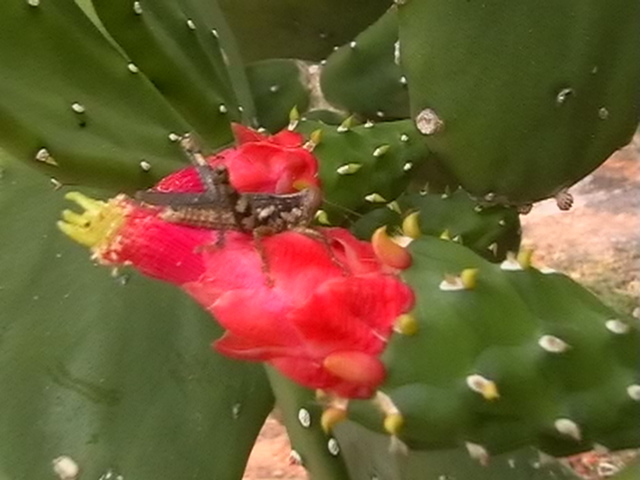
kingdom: Animalia
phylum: Arthropoda
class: Insecta
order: Orthoptera
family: Acrididae
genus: Pirithoicus
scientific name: Pirithoicus ophthalmicus
